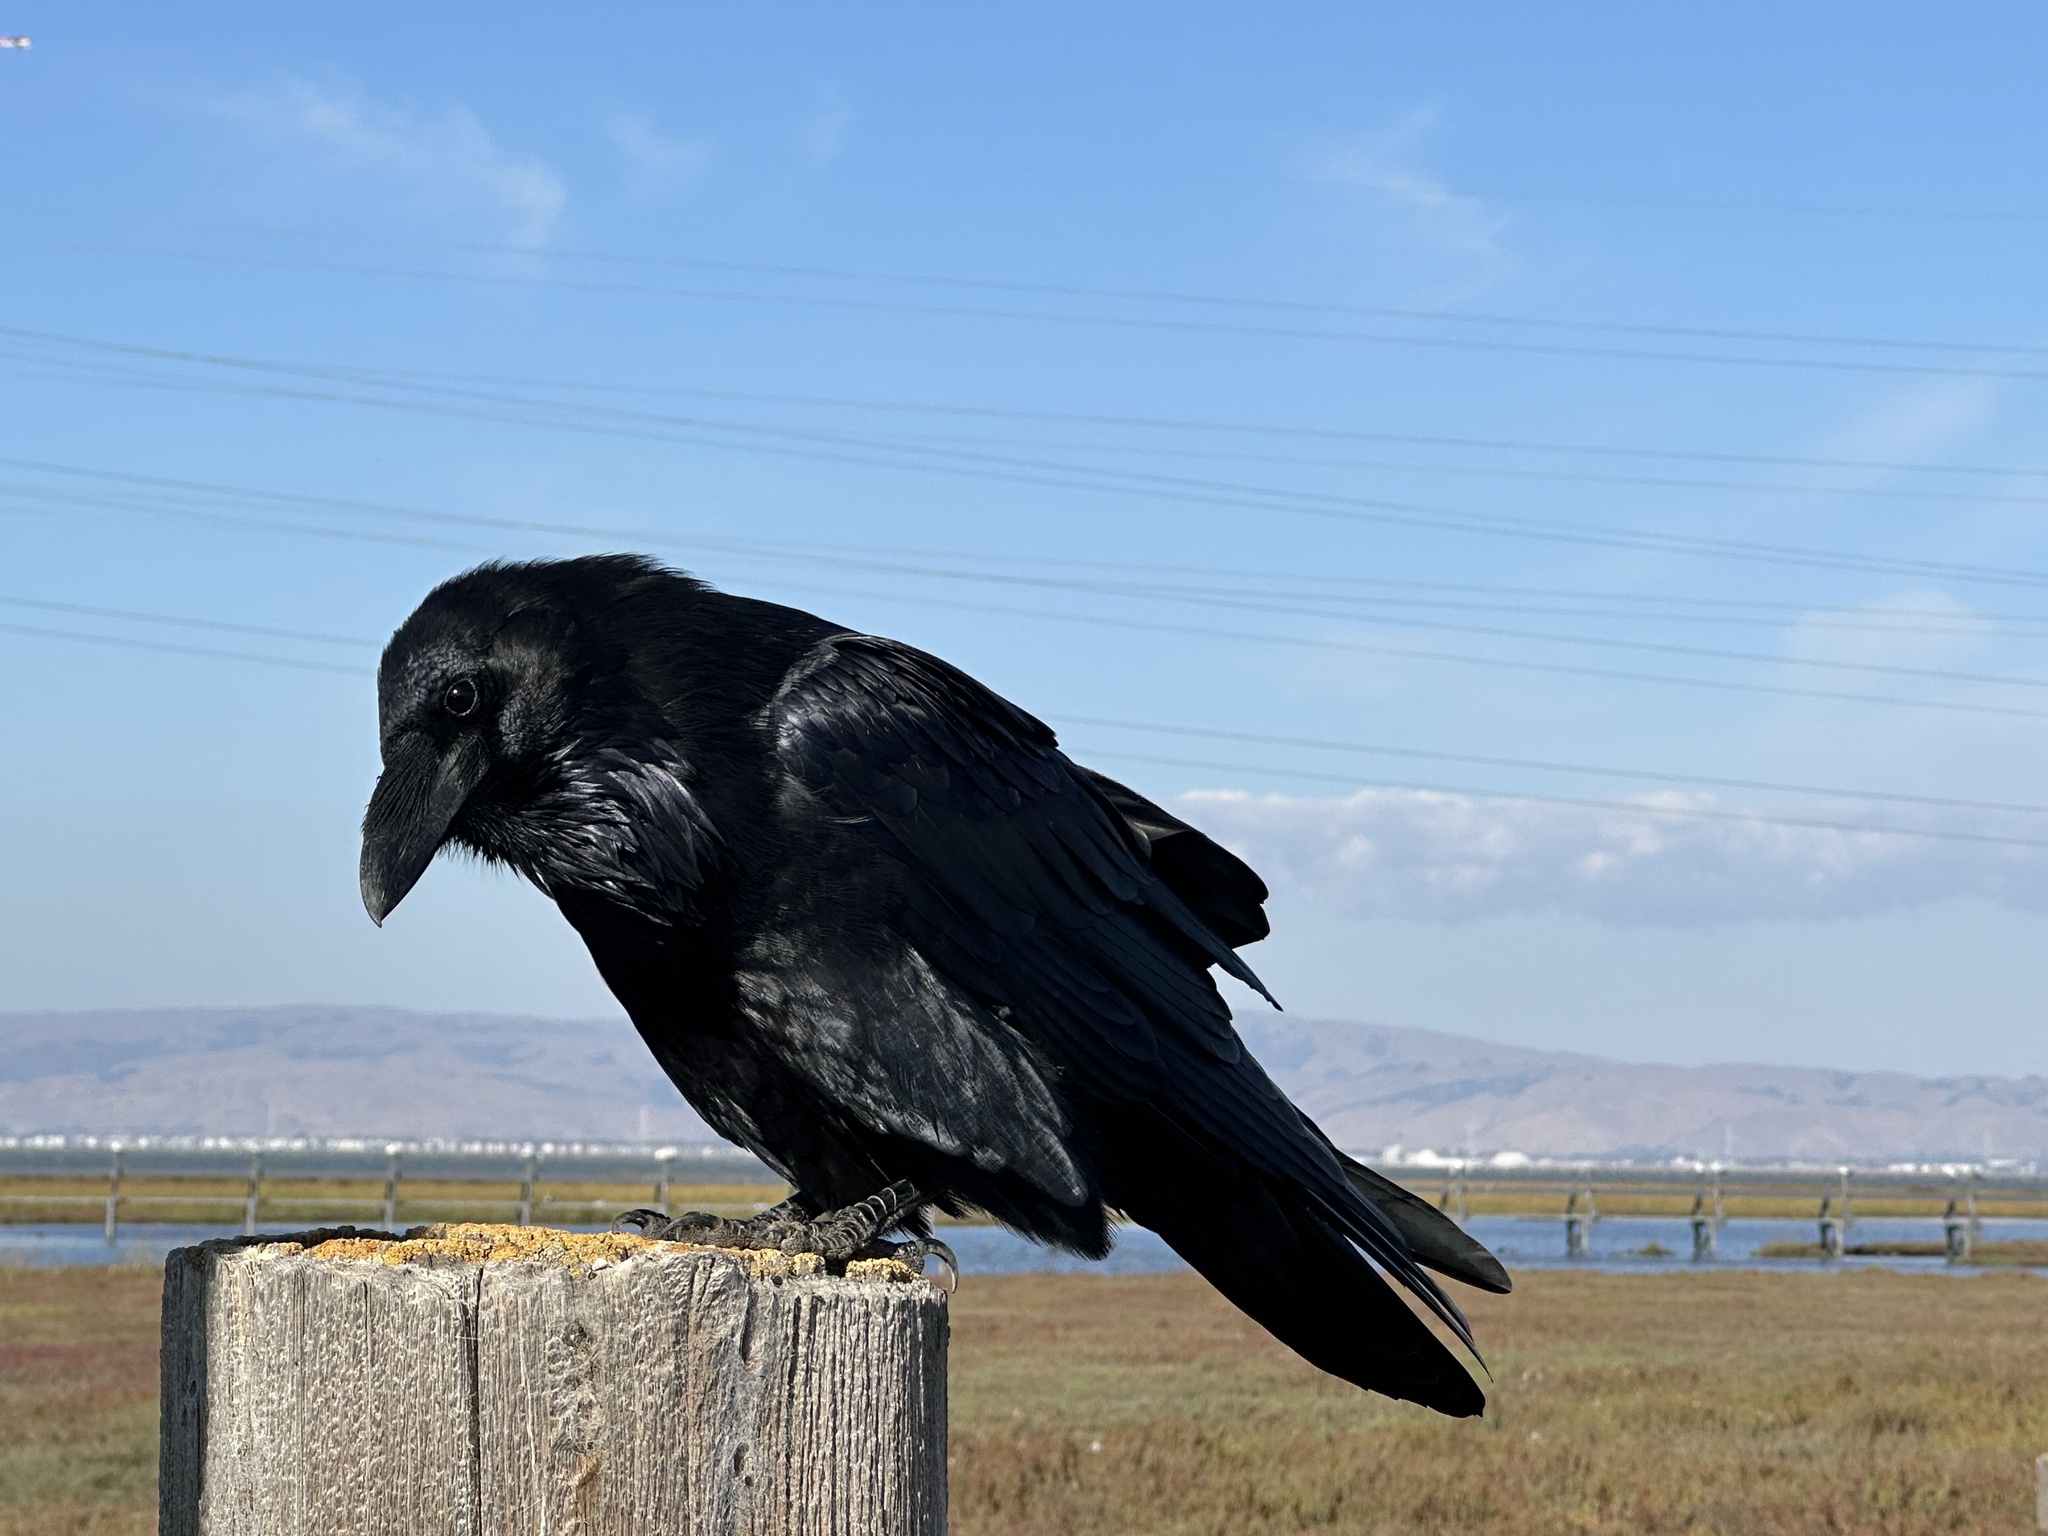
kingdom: Animalia
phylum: Chordata
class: Aves
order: Passeriformes
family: Corvidae
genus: Corvus
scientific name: Corvus corax
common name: Common raven
